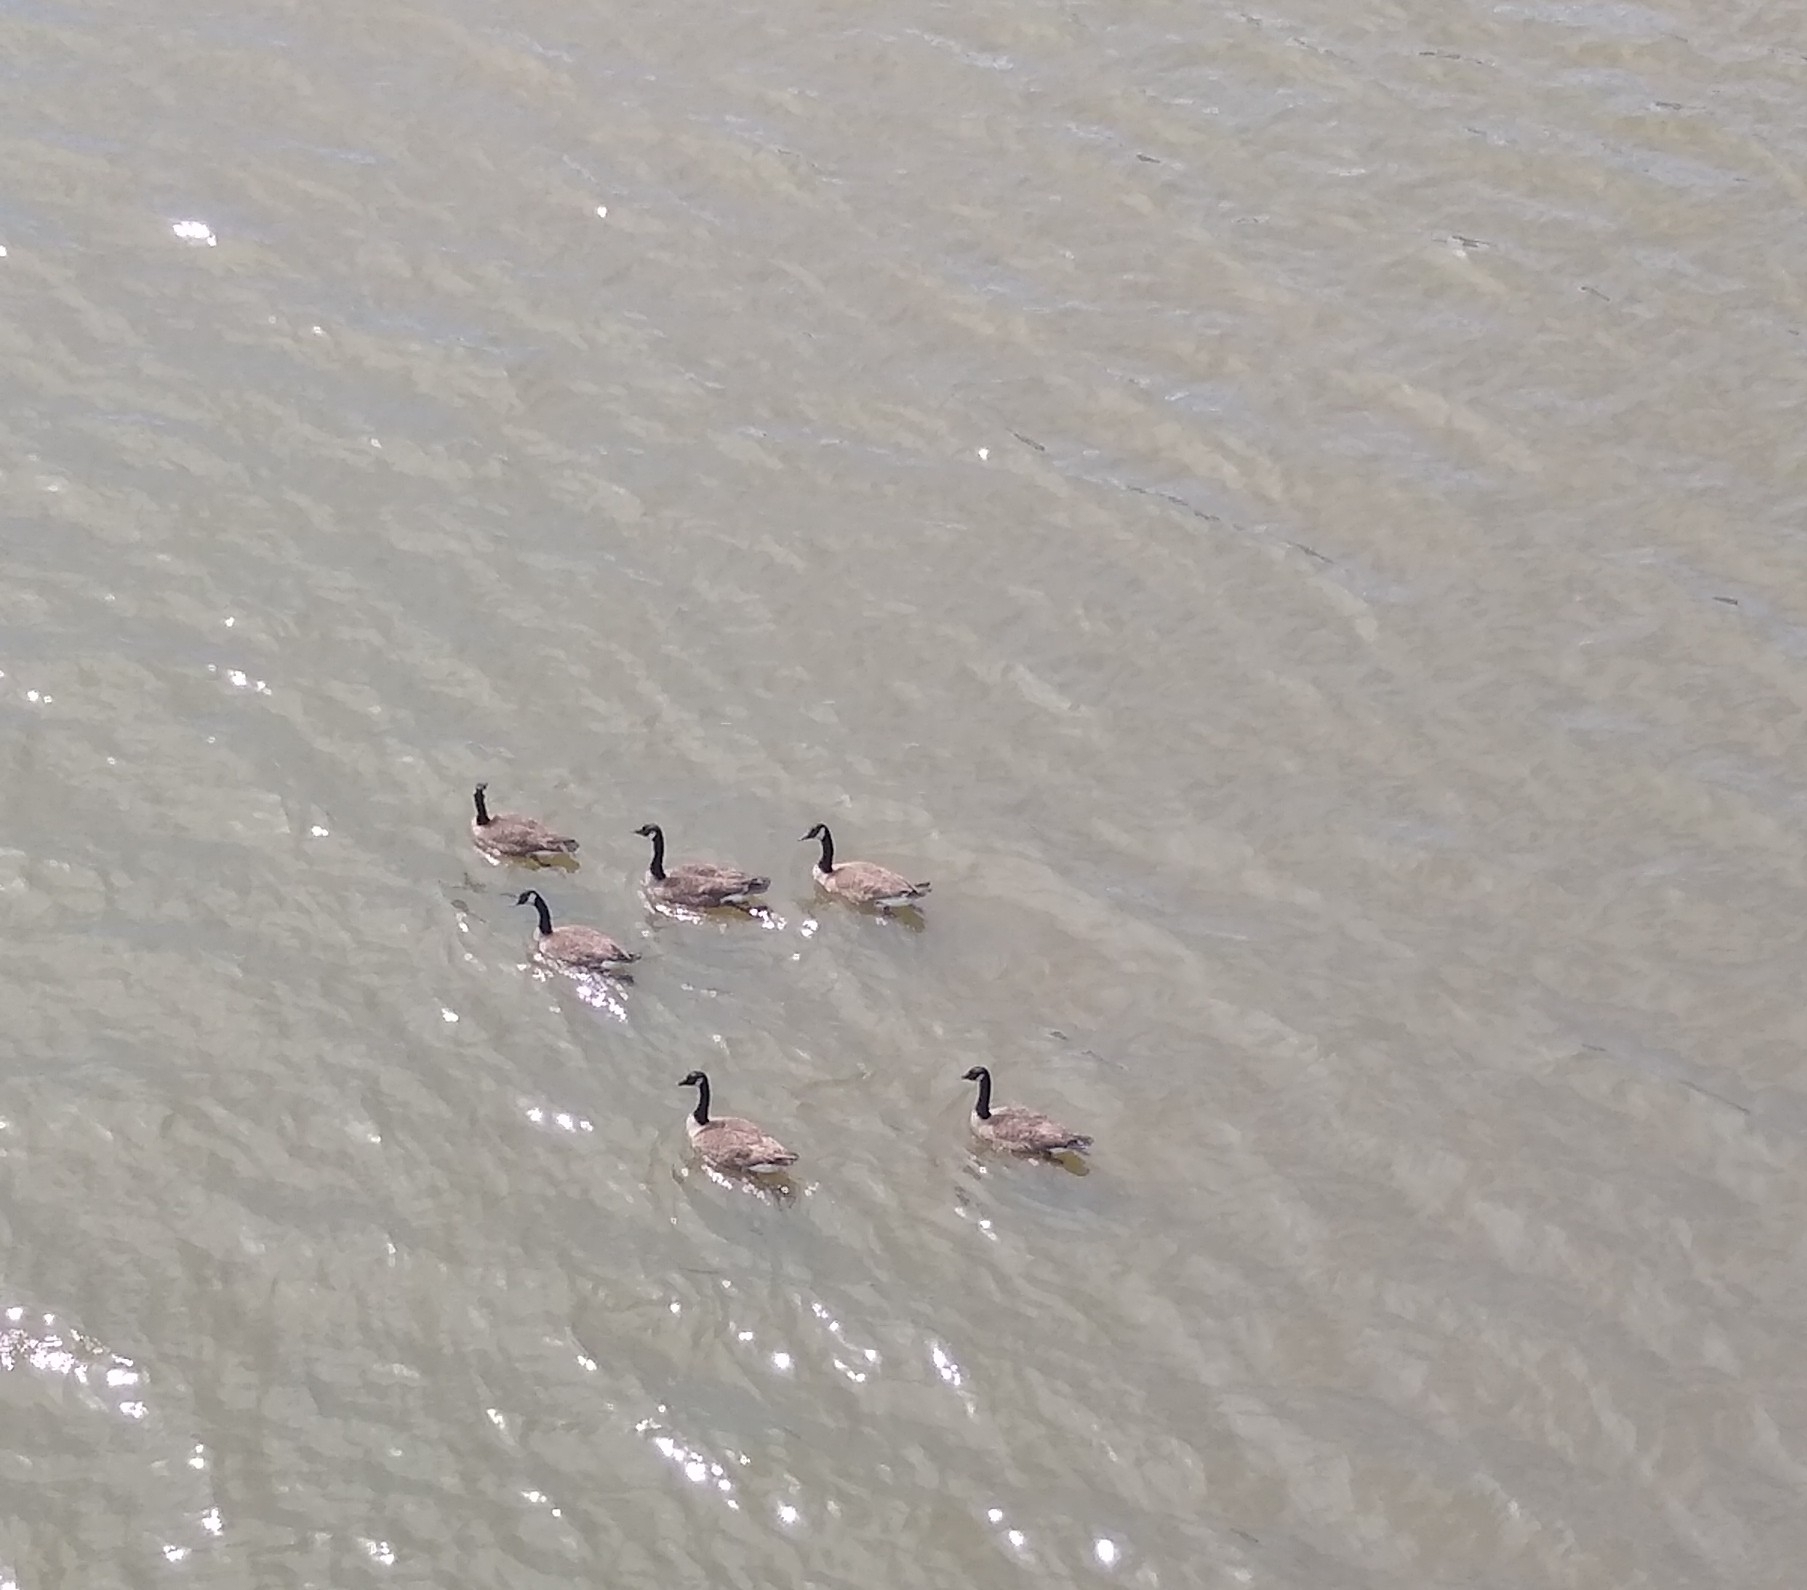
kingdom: Animalia
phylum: Chordata
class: Aves
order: Anseriformes
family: Anatidae
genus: Branta
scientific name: Branta canadensis
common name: Canada goose
